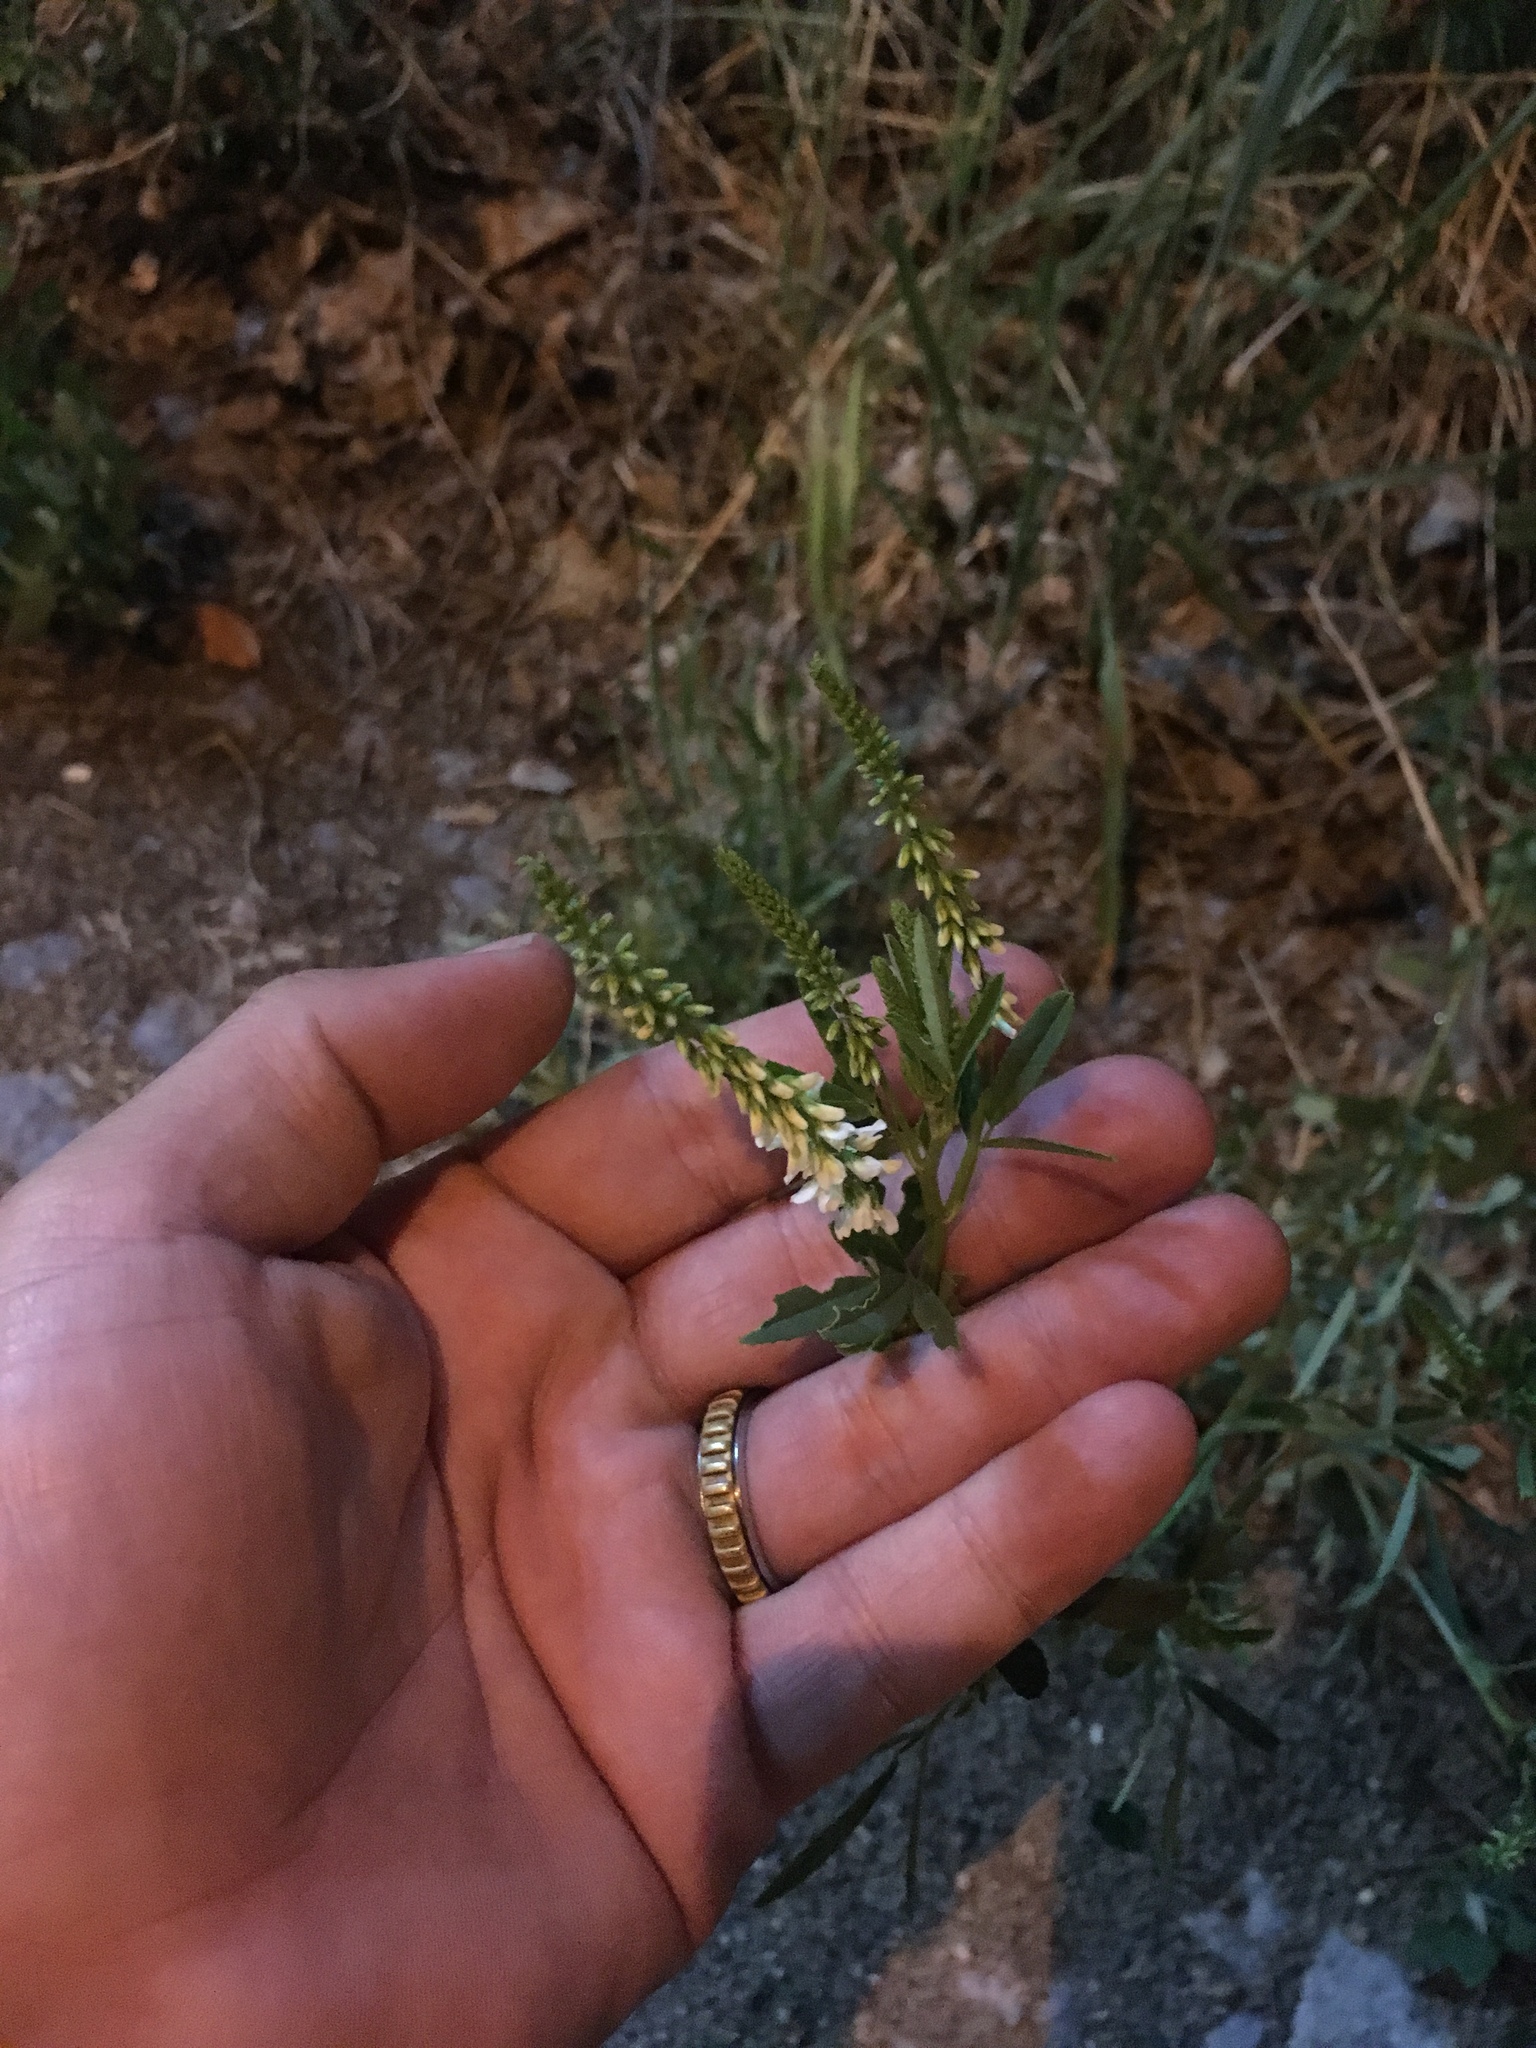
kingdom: Plantae
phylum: Tracheophyta
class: Magnoliopsida
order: Fabales
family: Fabaceae
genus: Melilotus
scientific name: Melilotus albus
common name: White melilot
